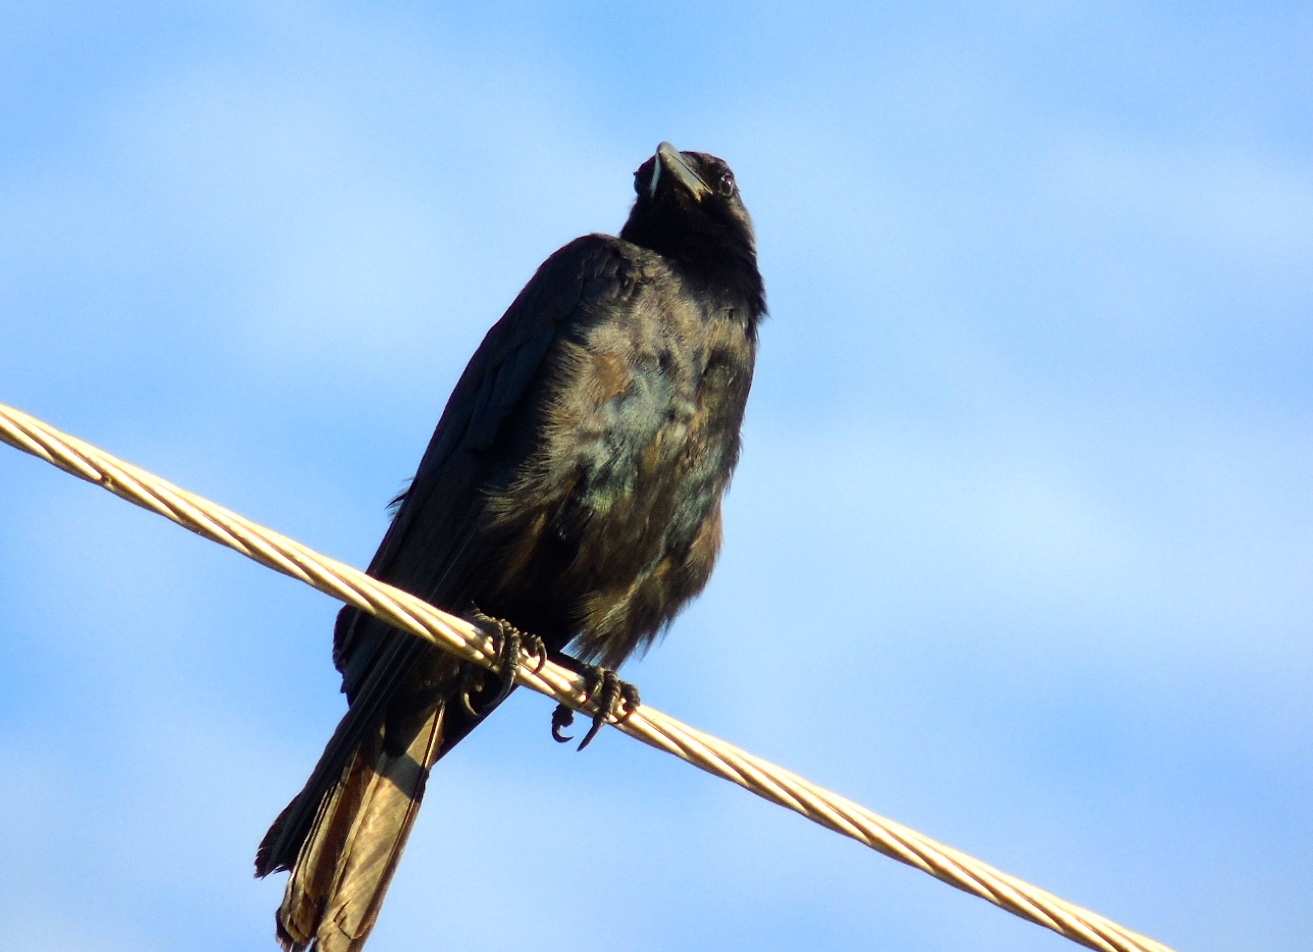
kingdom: Animalia
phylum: Chordata
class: Aves
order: Passeriformes
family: Corvidae
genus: Corvus
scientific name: Corvus sinaloae
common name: Sinaloa crow
